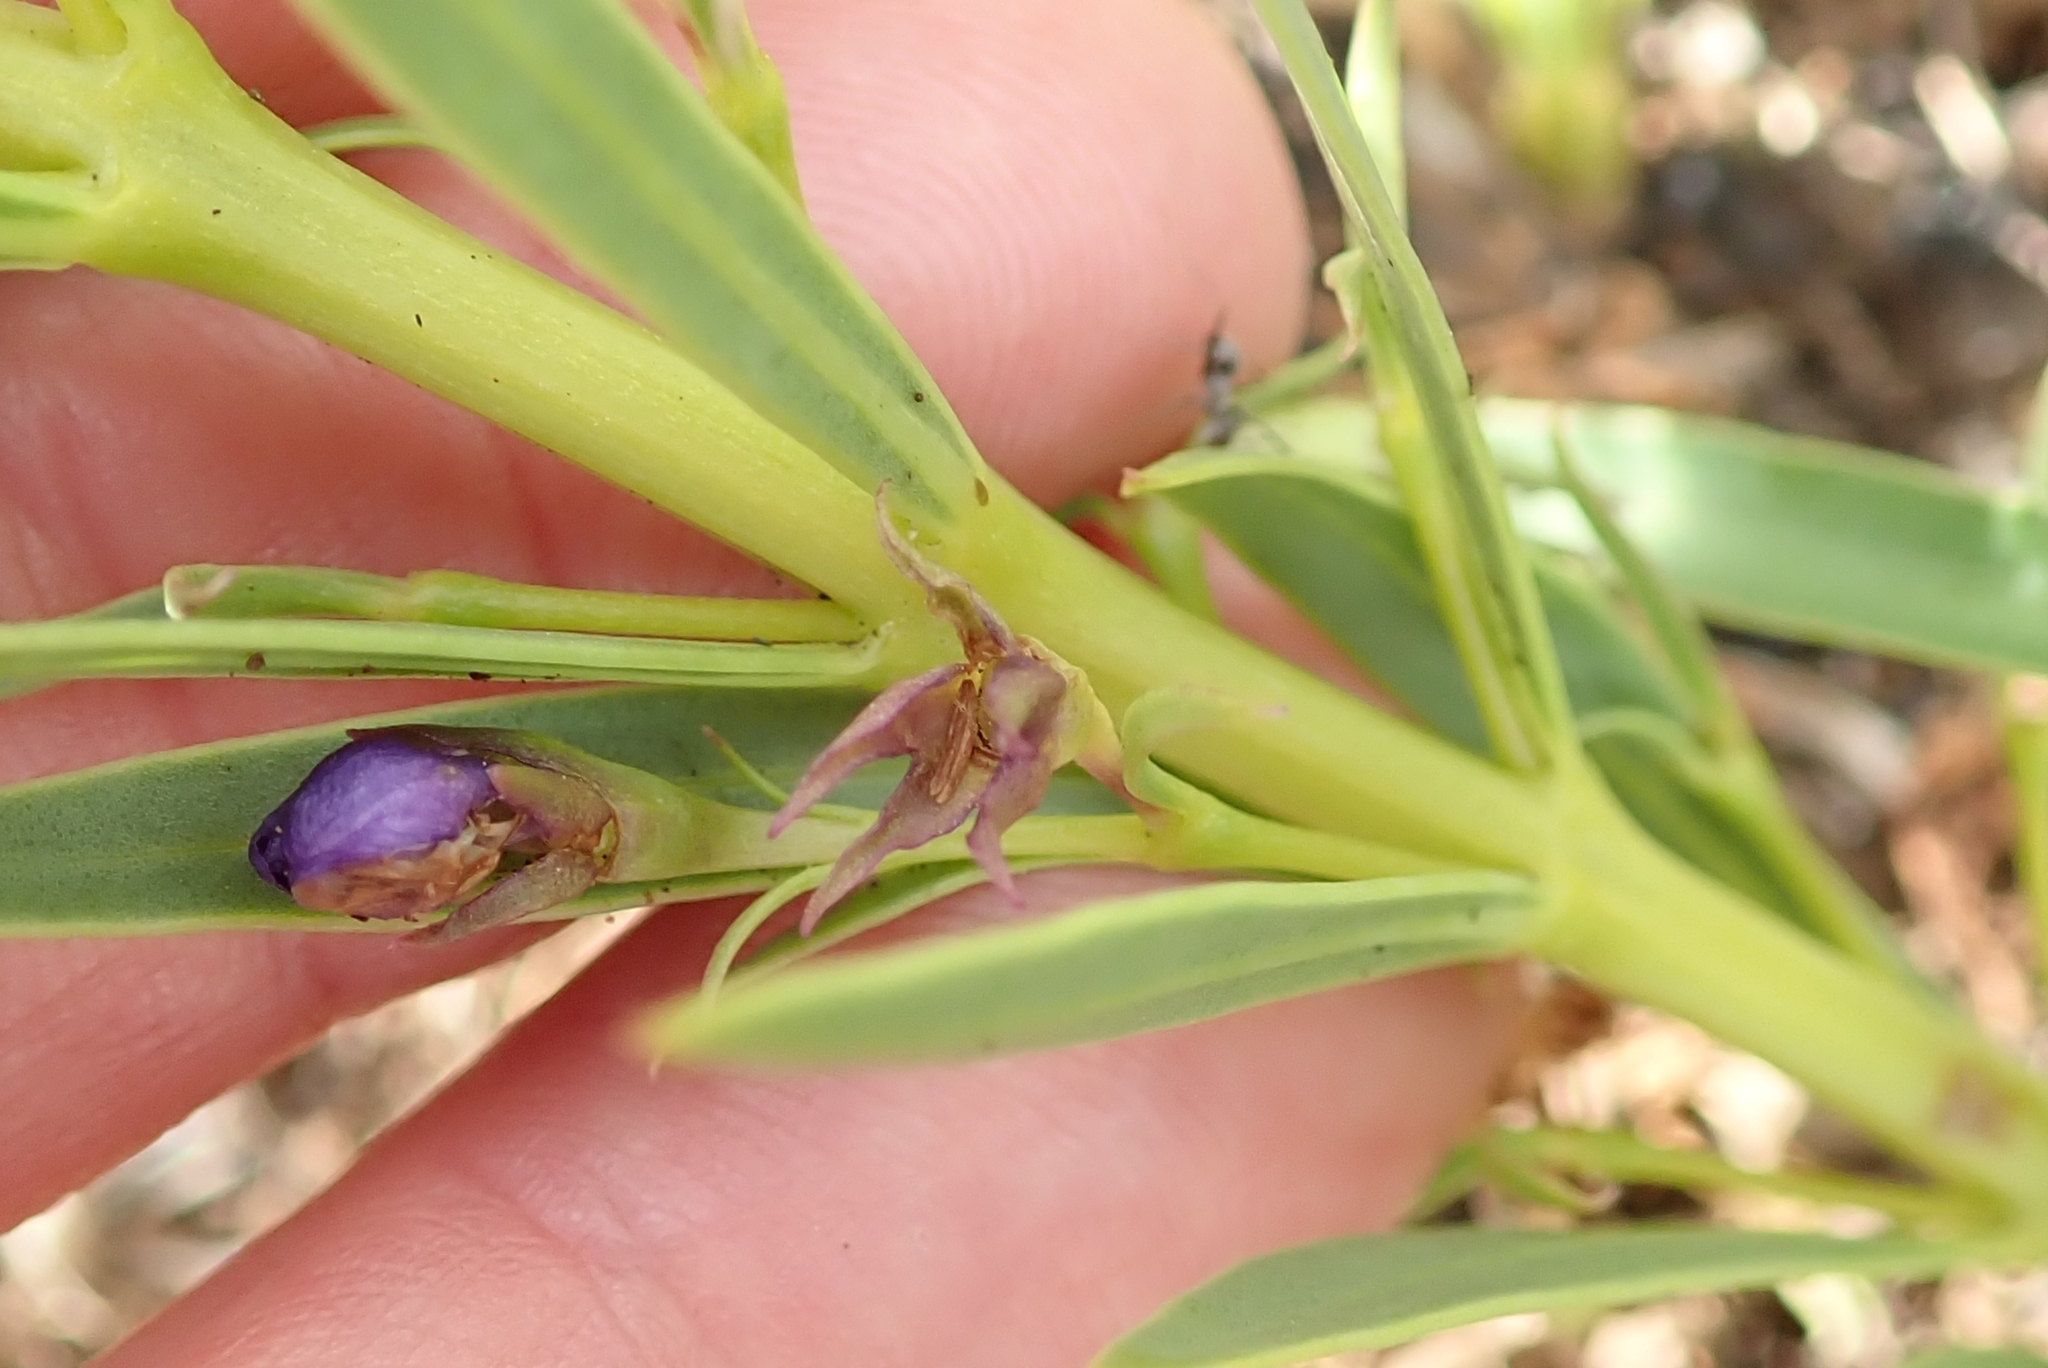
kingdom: Plantae
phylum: Tracheophyta
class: Magnoliopsida
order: Lamiales
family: Lamiaceae
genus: Rotheca
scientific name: Rotheca hirsuta
